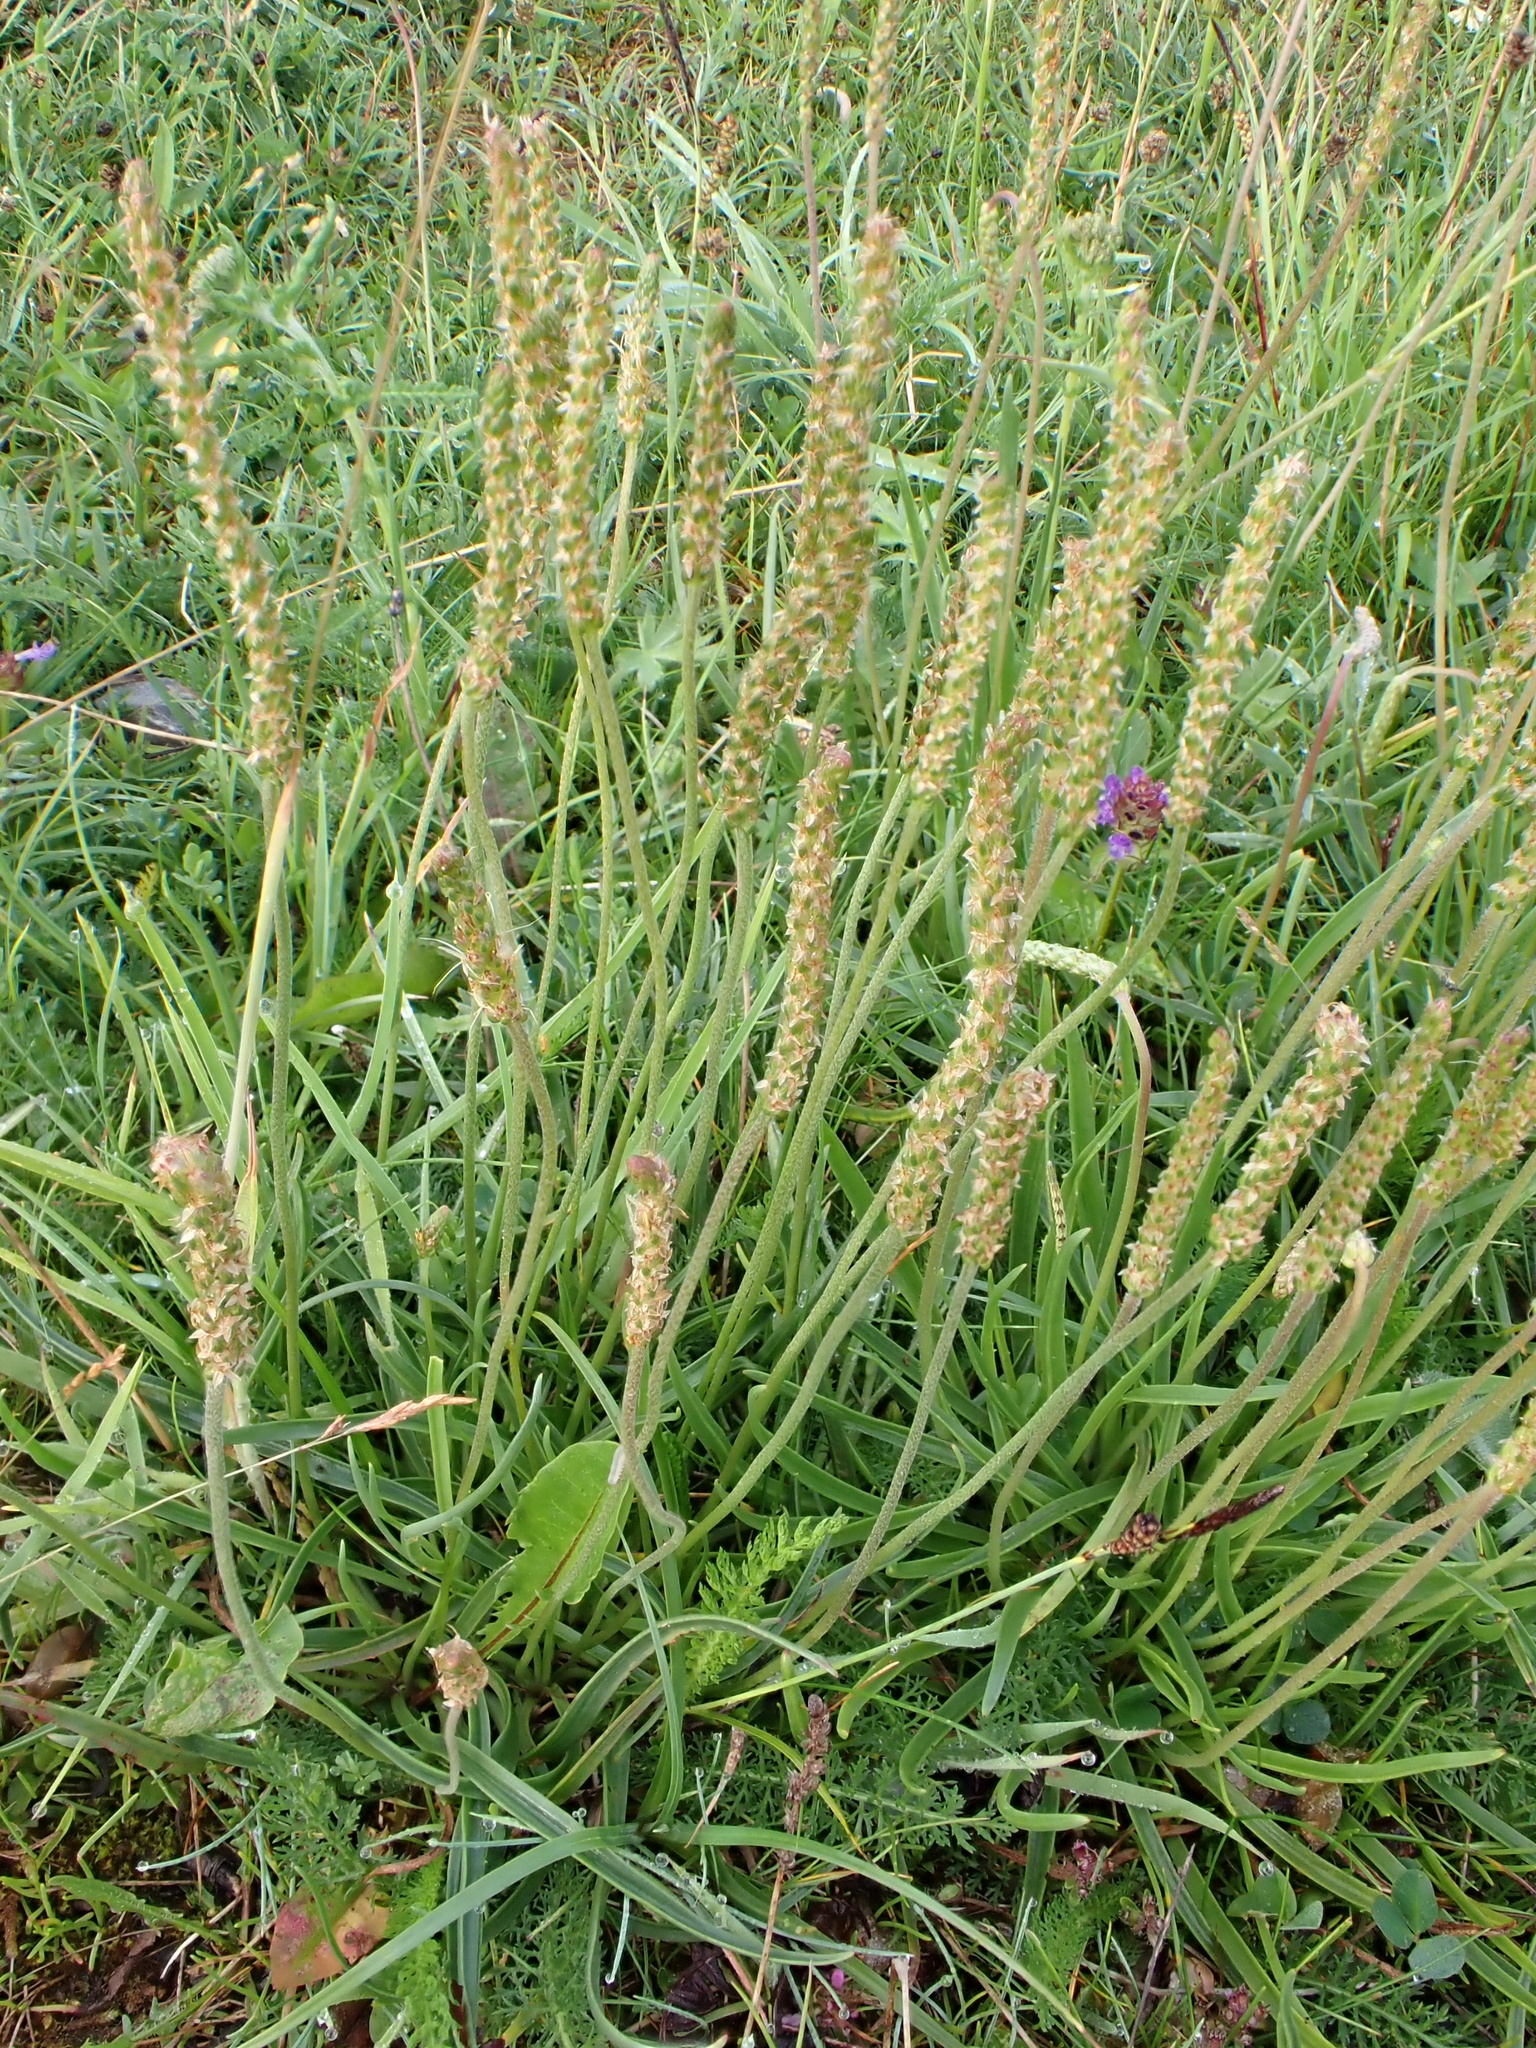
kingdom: Plantae
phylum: Tracheophyta
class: Magnoliopsida
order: Lamiales
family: Plantaginaceae
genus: Plantago
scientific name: Plantago maritima
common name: Sea plantain
